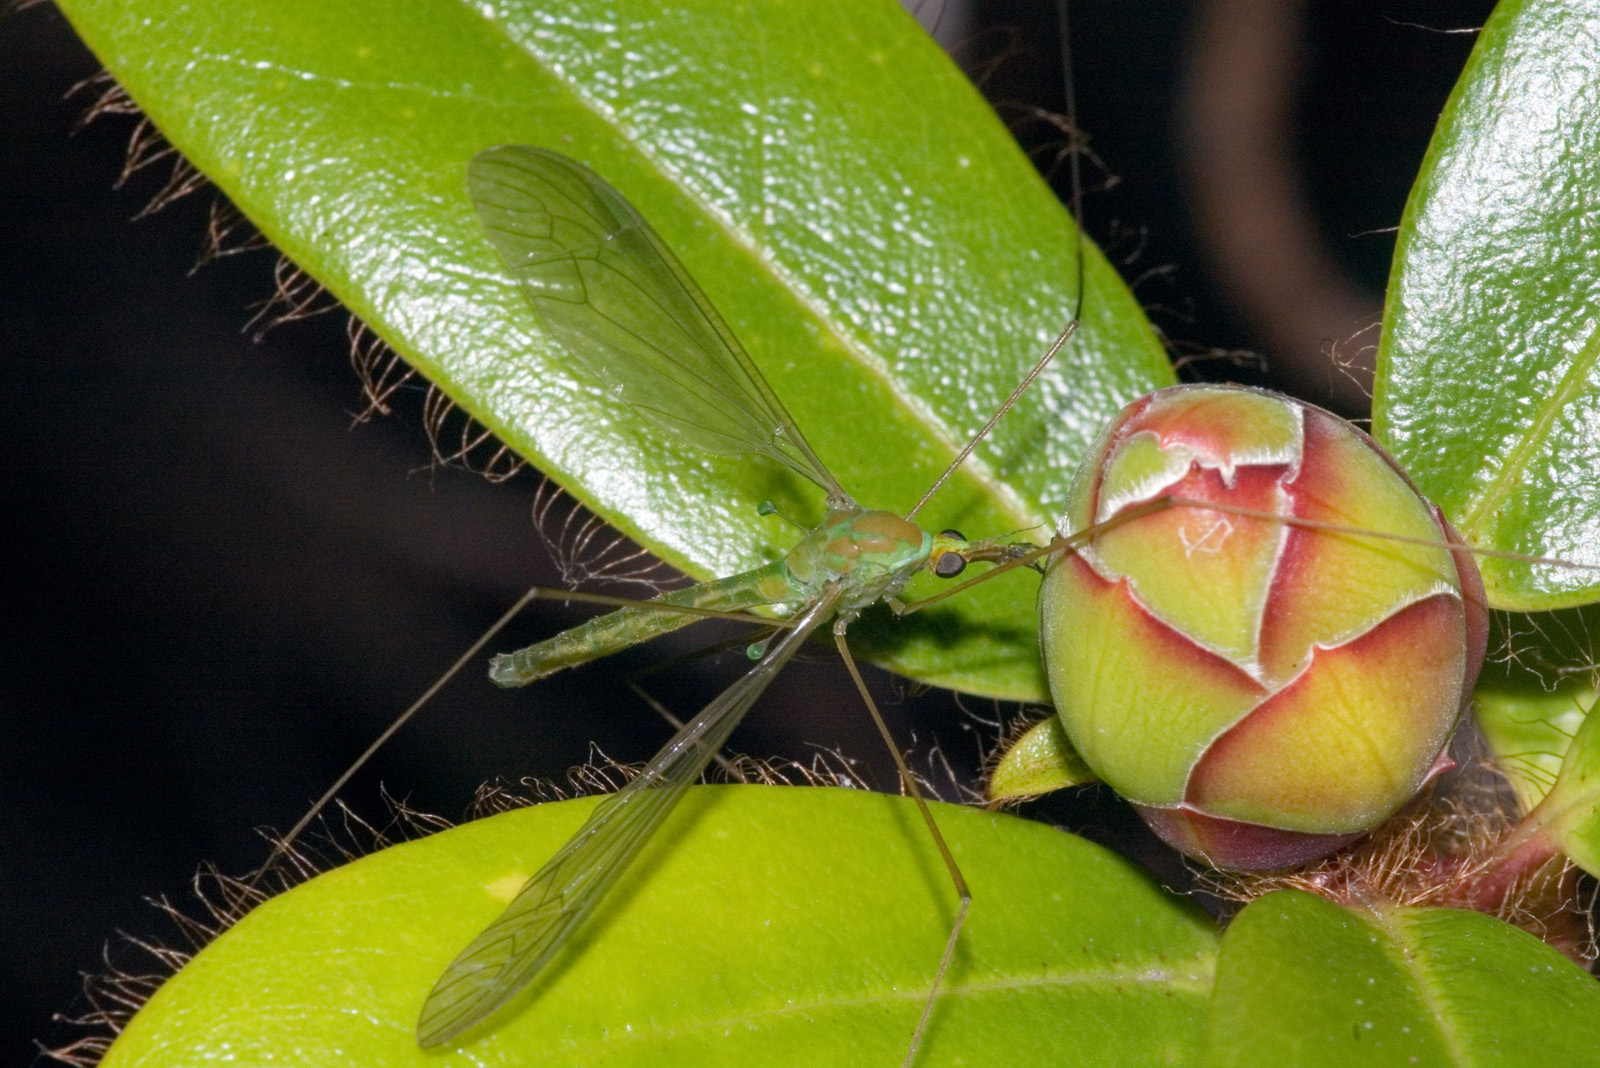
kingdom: Animalia
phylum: Arthropoda
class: Insecta
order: Diptera
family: Tipulidae
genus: Leptotarsus
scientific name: Leptotarsus virescens
